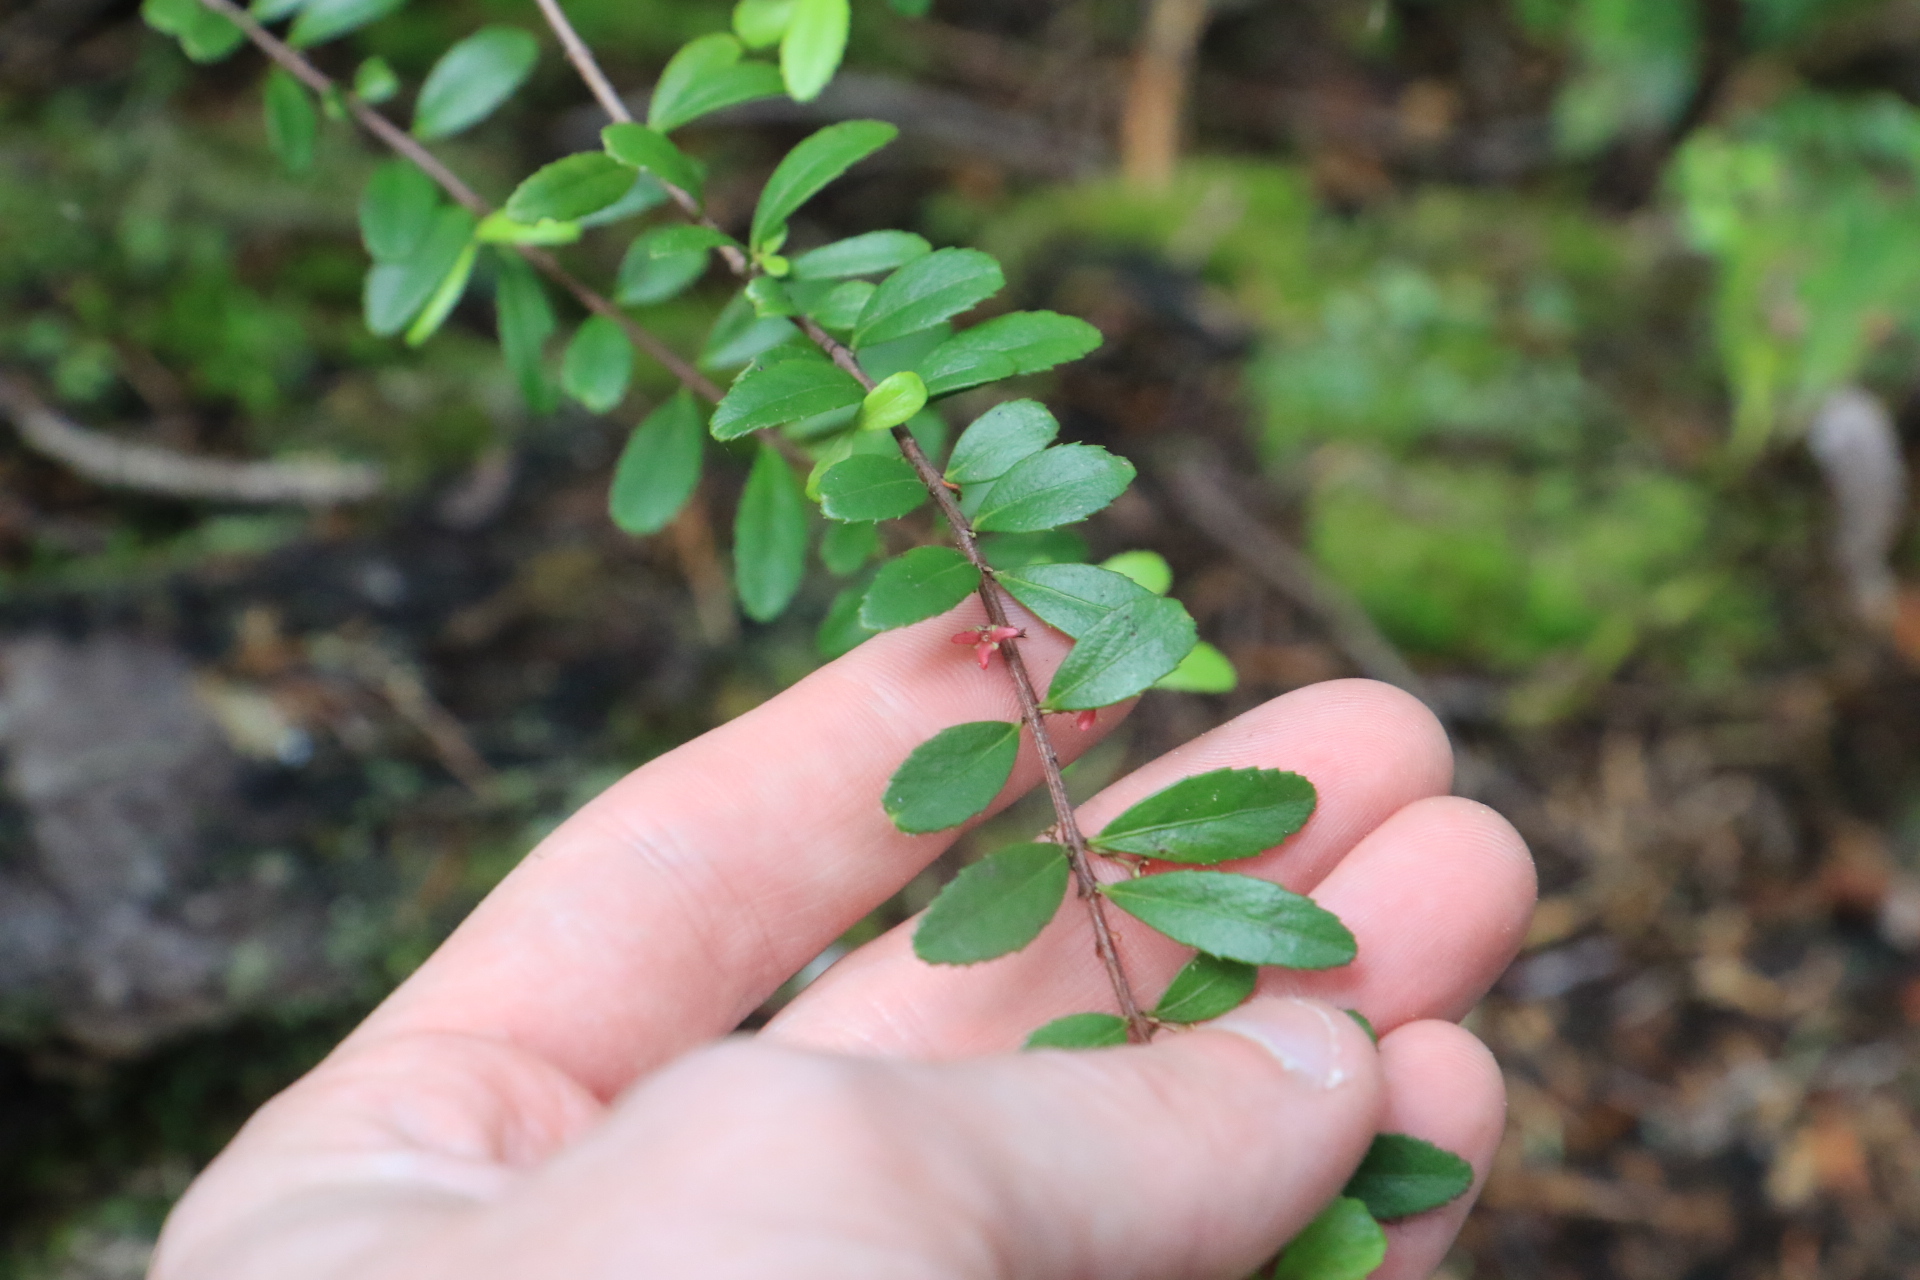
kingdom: Plantae
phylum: Tracheophyta
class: Magnoliopsida
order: Celastrales
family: Celastraceae
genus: Paxistima
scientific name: Paxistima myrsinites
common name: Mountain-lover
